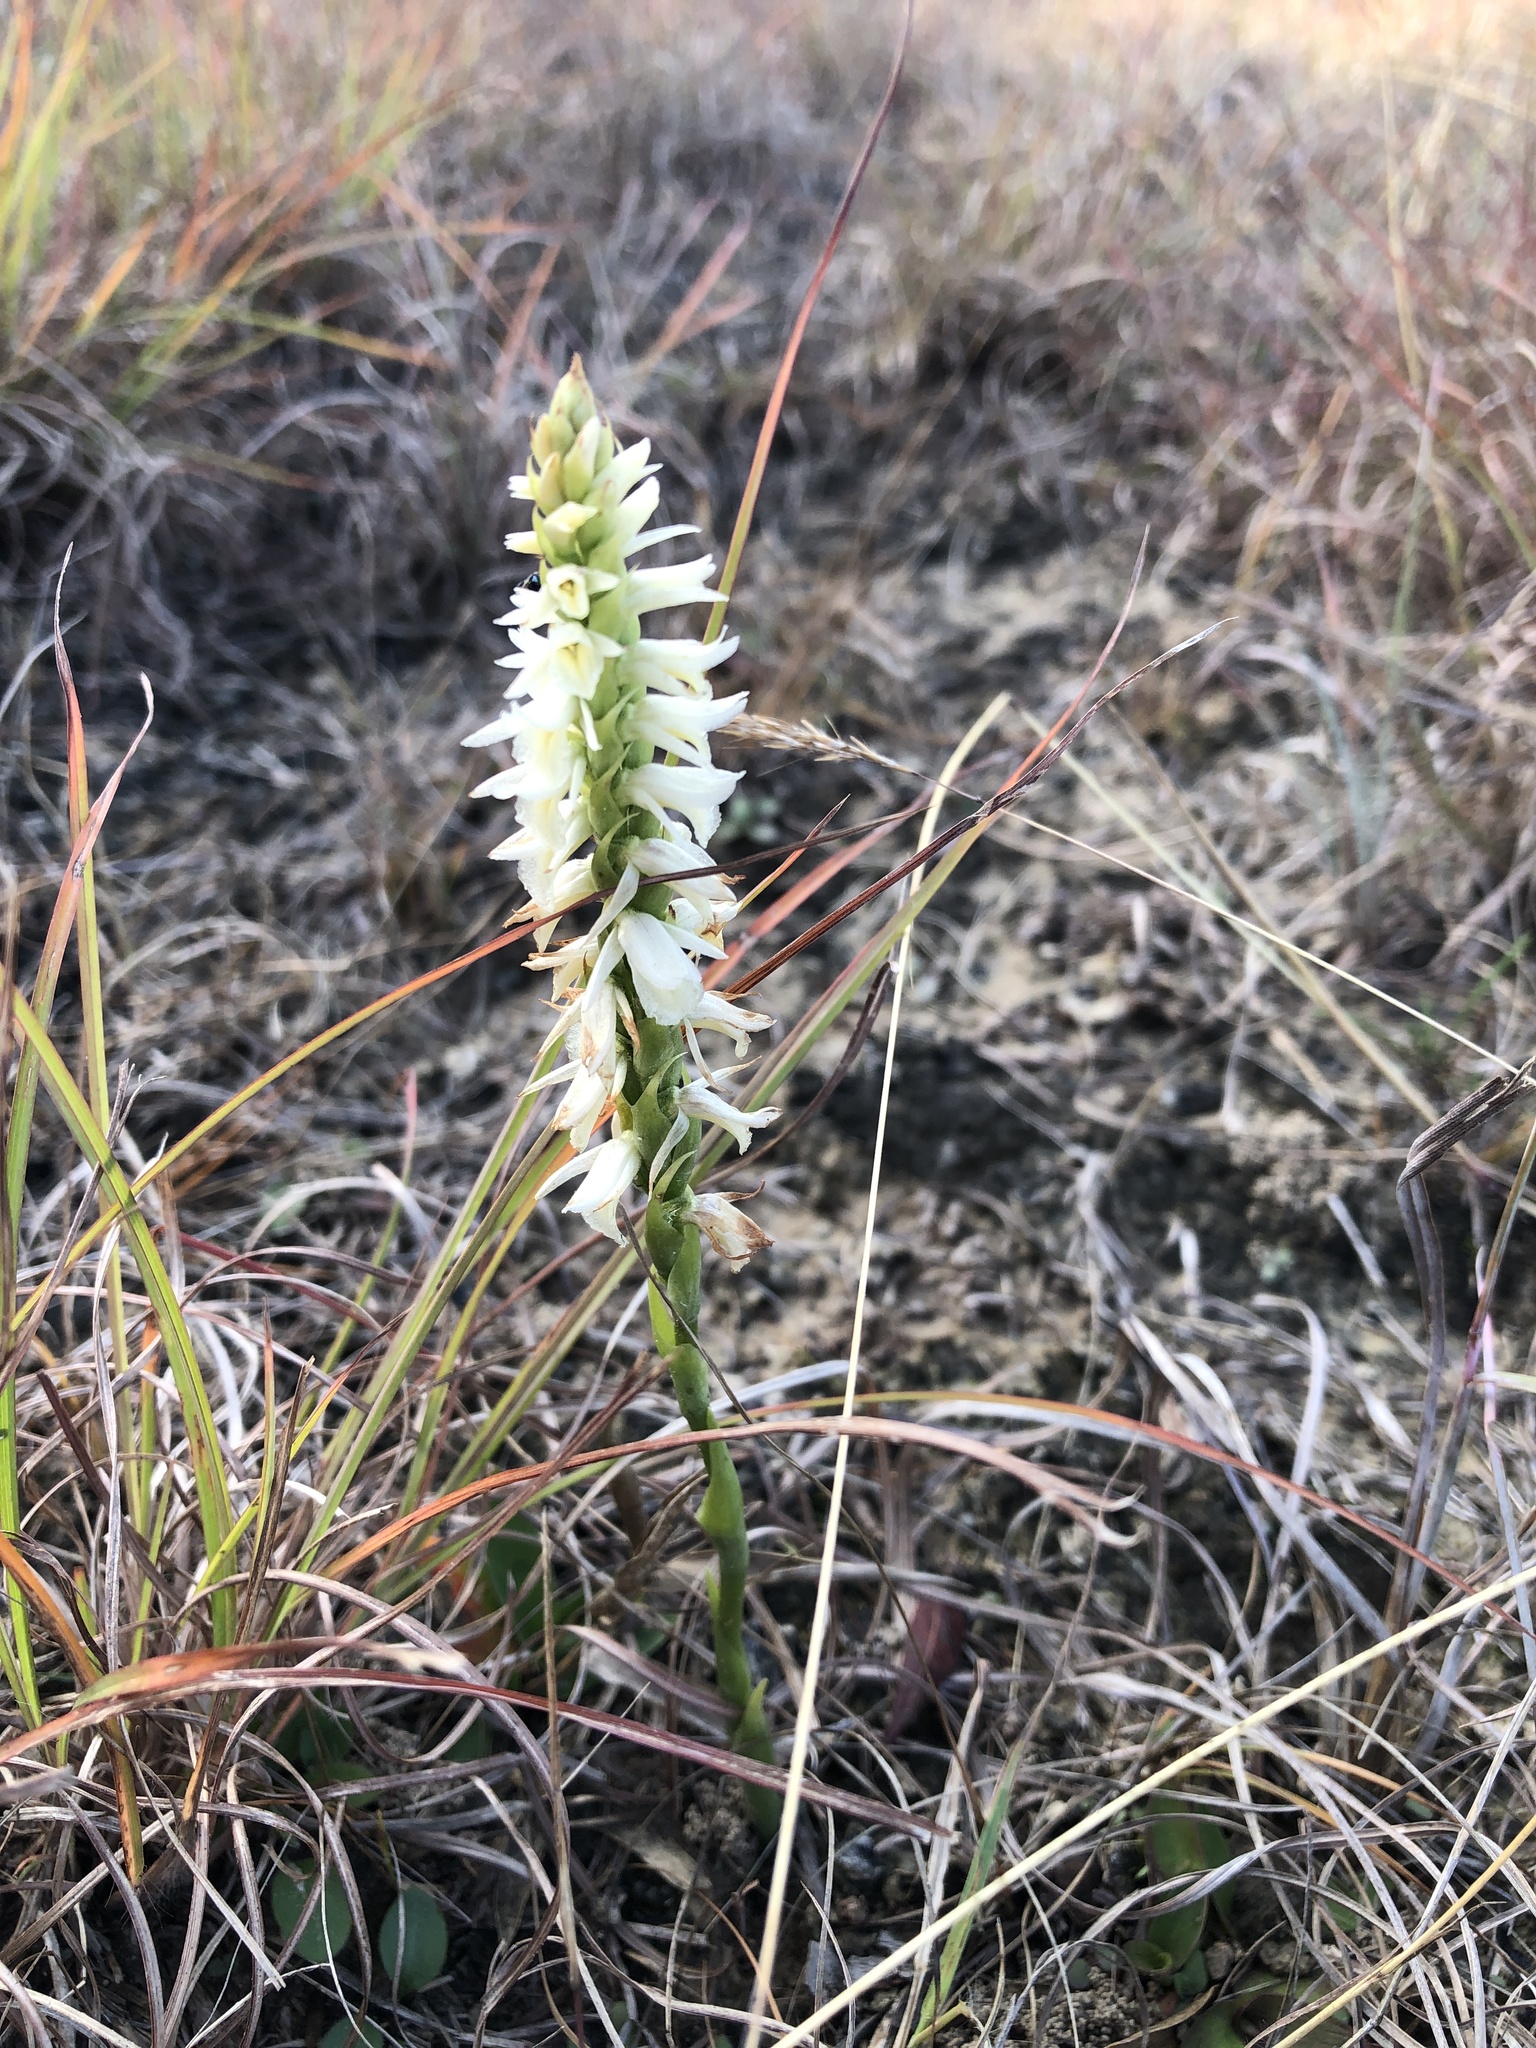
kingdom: Plantae
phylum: Tracheophyta
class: Liliopsida
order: Asparagales
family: Orchidaceae
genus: Spiranthes
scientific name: Spiranthes magnicamporum
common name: Great plains ladies'-tresses
